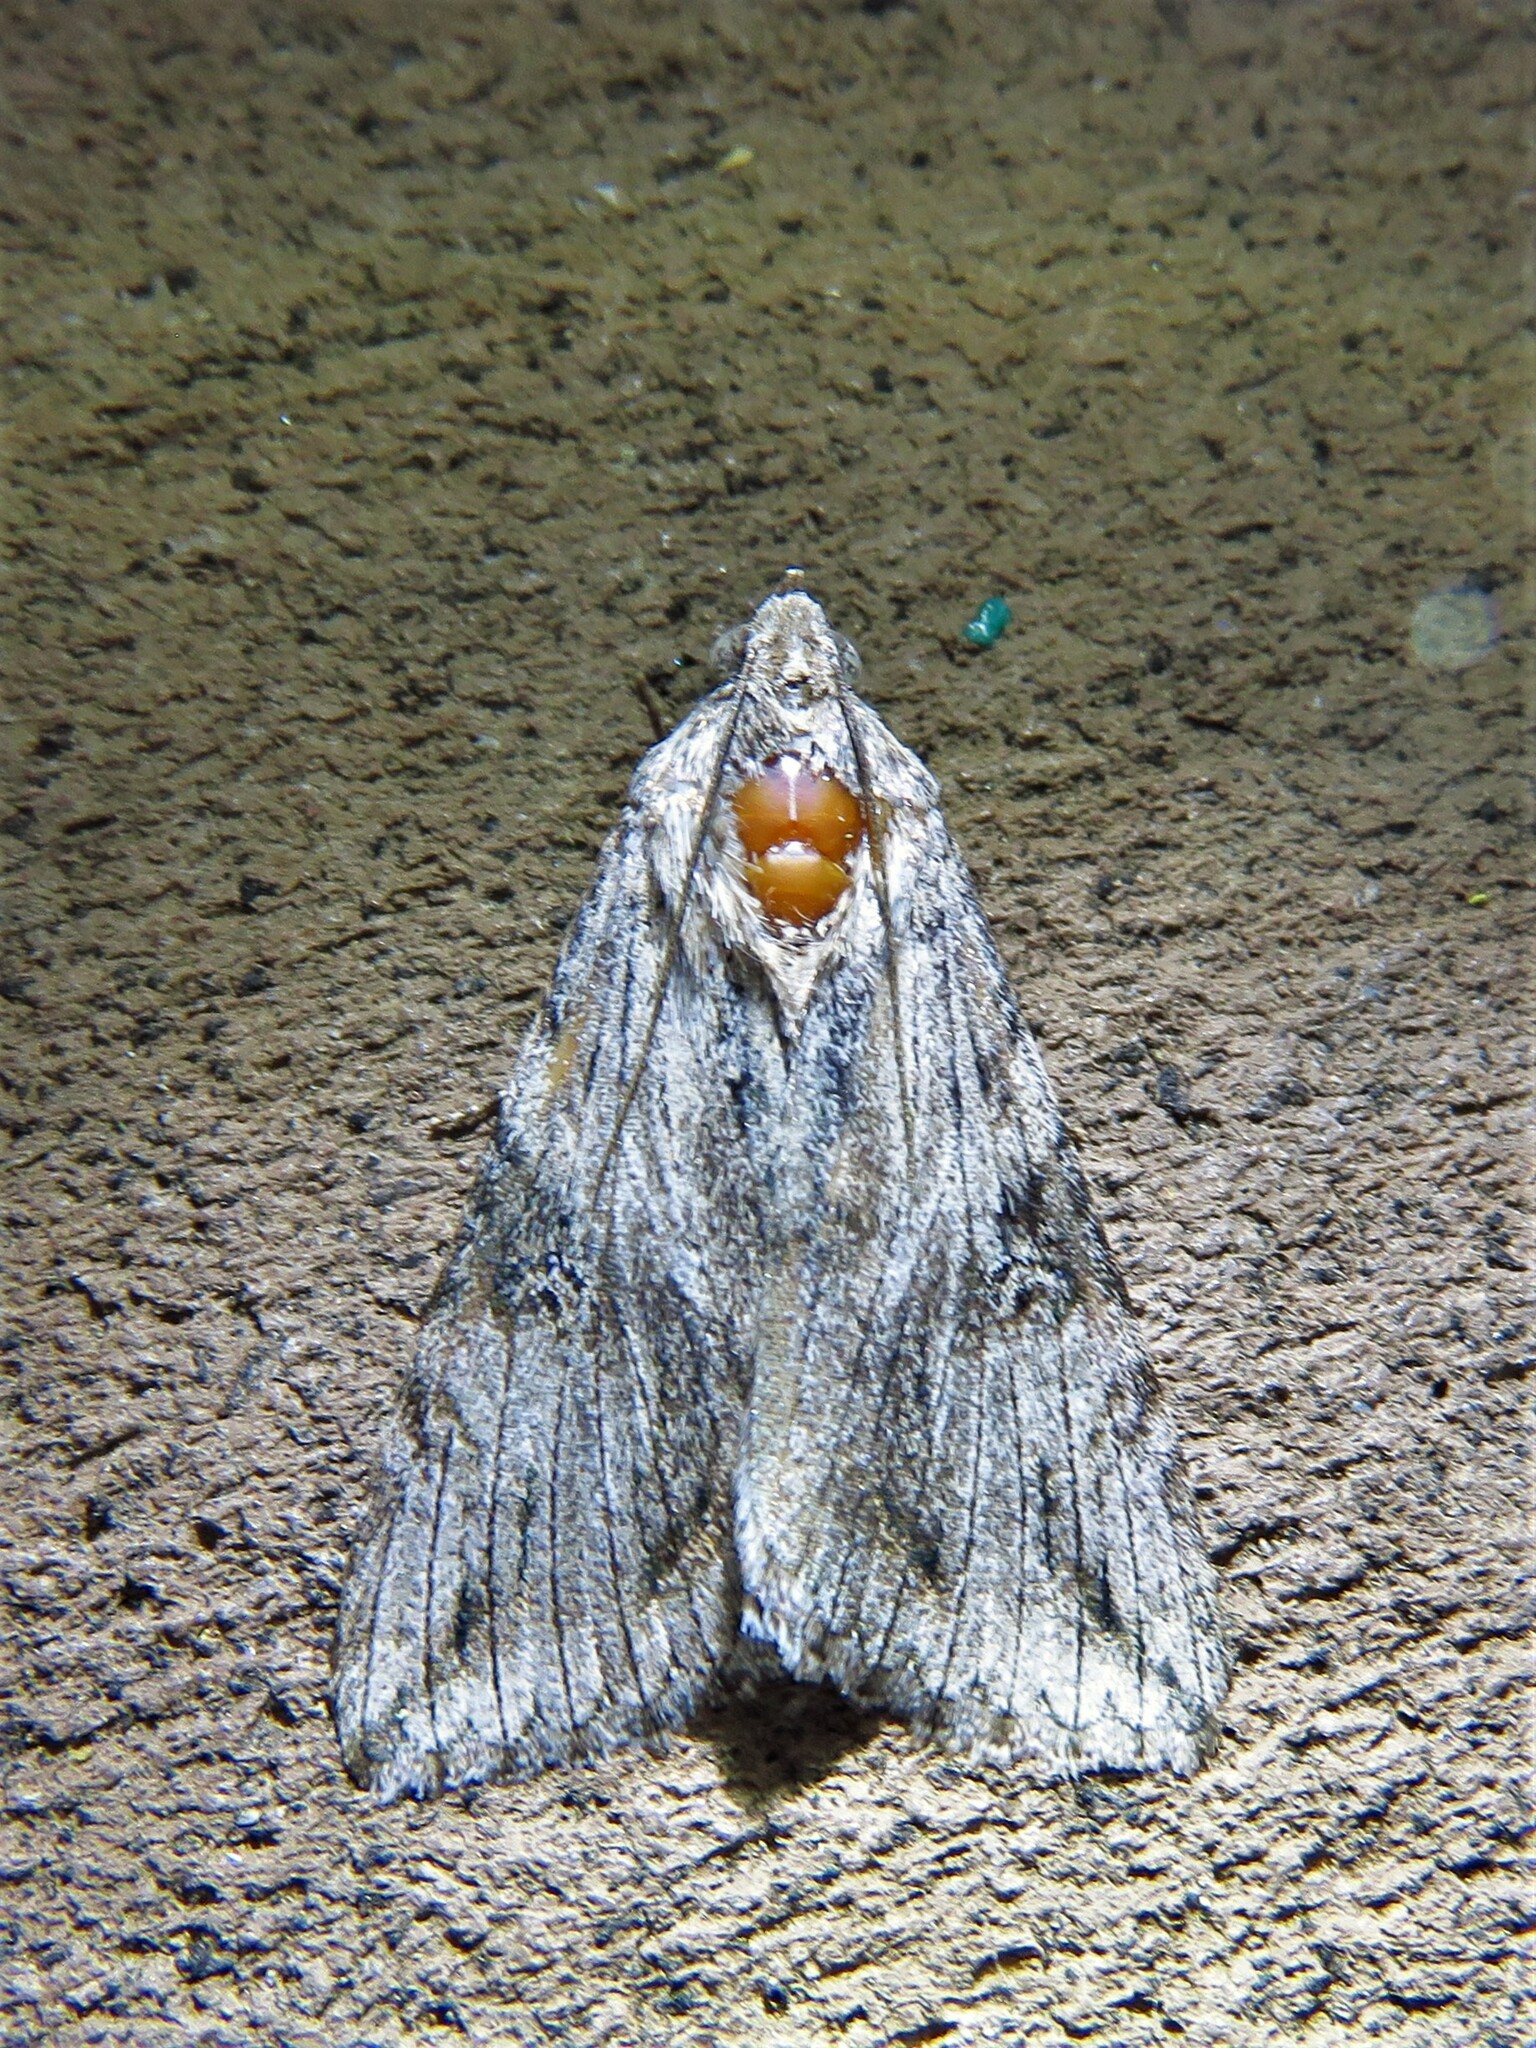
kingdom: Animalia
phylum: Arthropoda
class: Insecta
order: Lepidoptera
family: Erebidae
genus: Melipotis
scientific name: Melipotis jucunda
